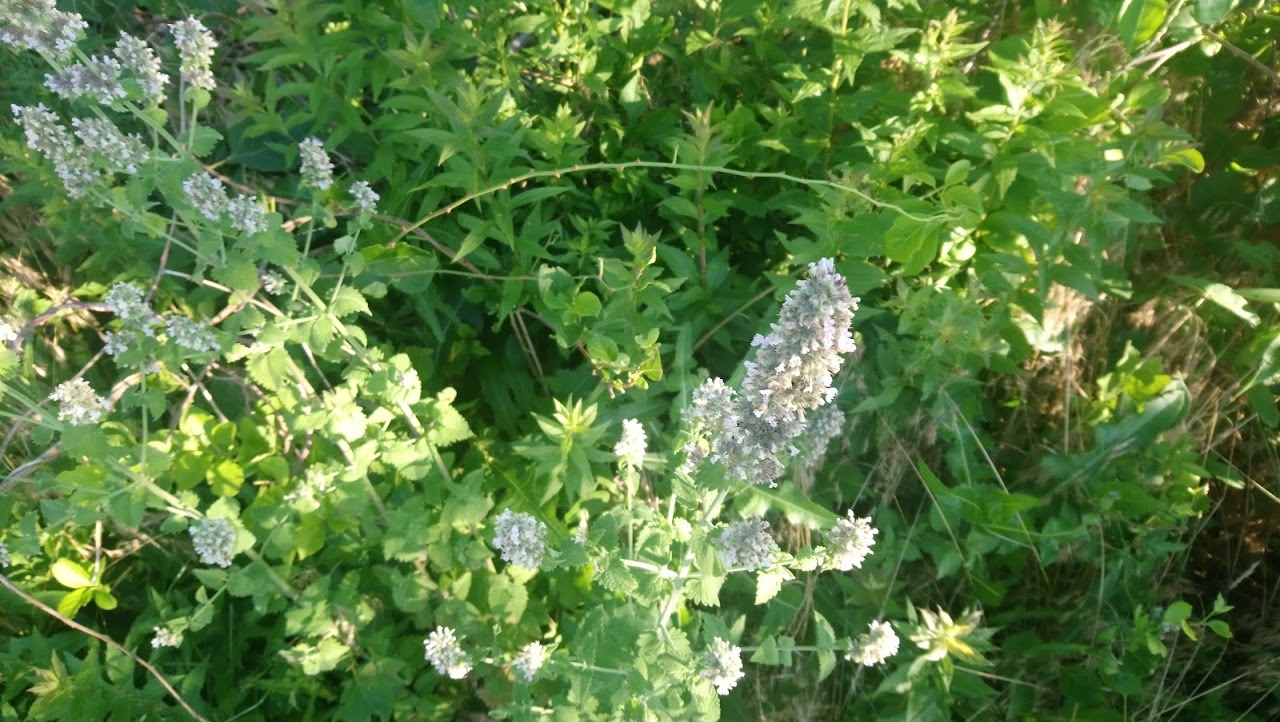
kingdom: Plantae
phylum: Tracheophyta
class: Magnoliopsida
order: Lamiales
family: Lamiaceae
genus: Nepeta
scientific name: Nepeta cataria
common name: Catnip
